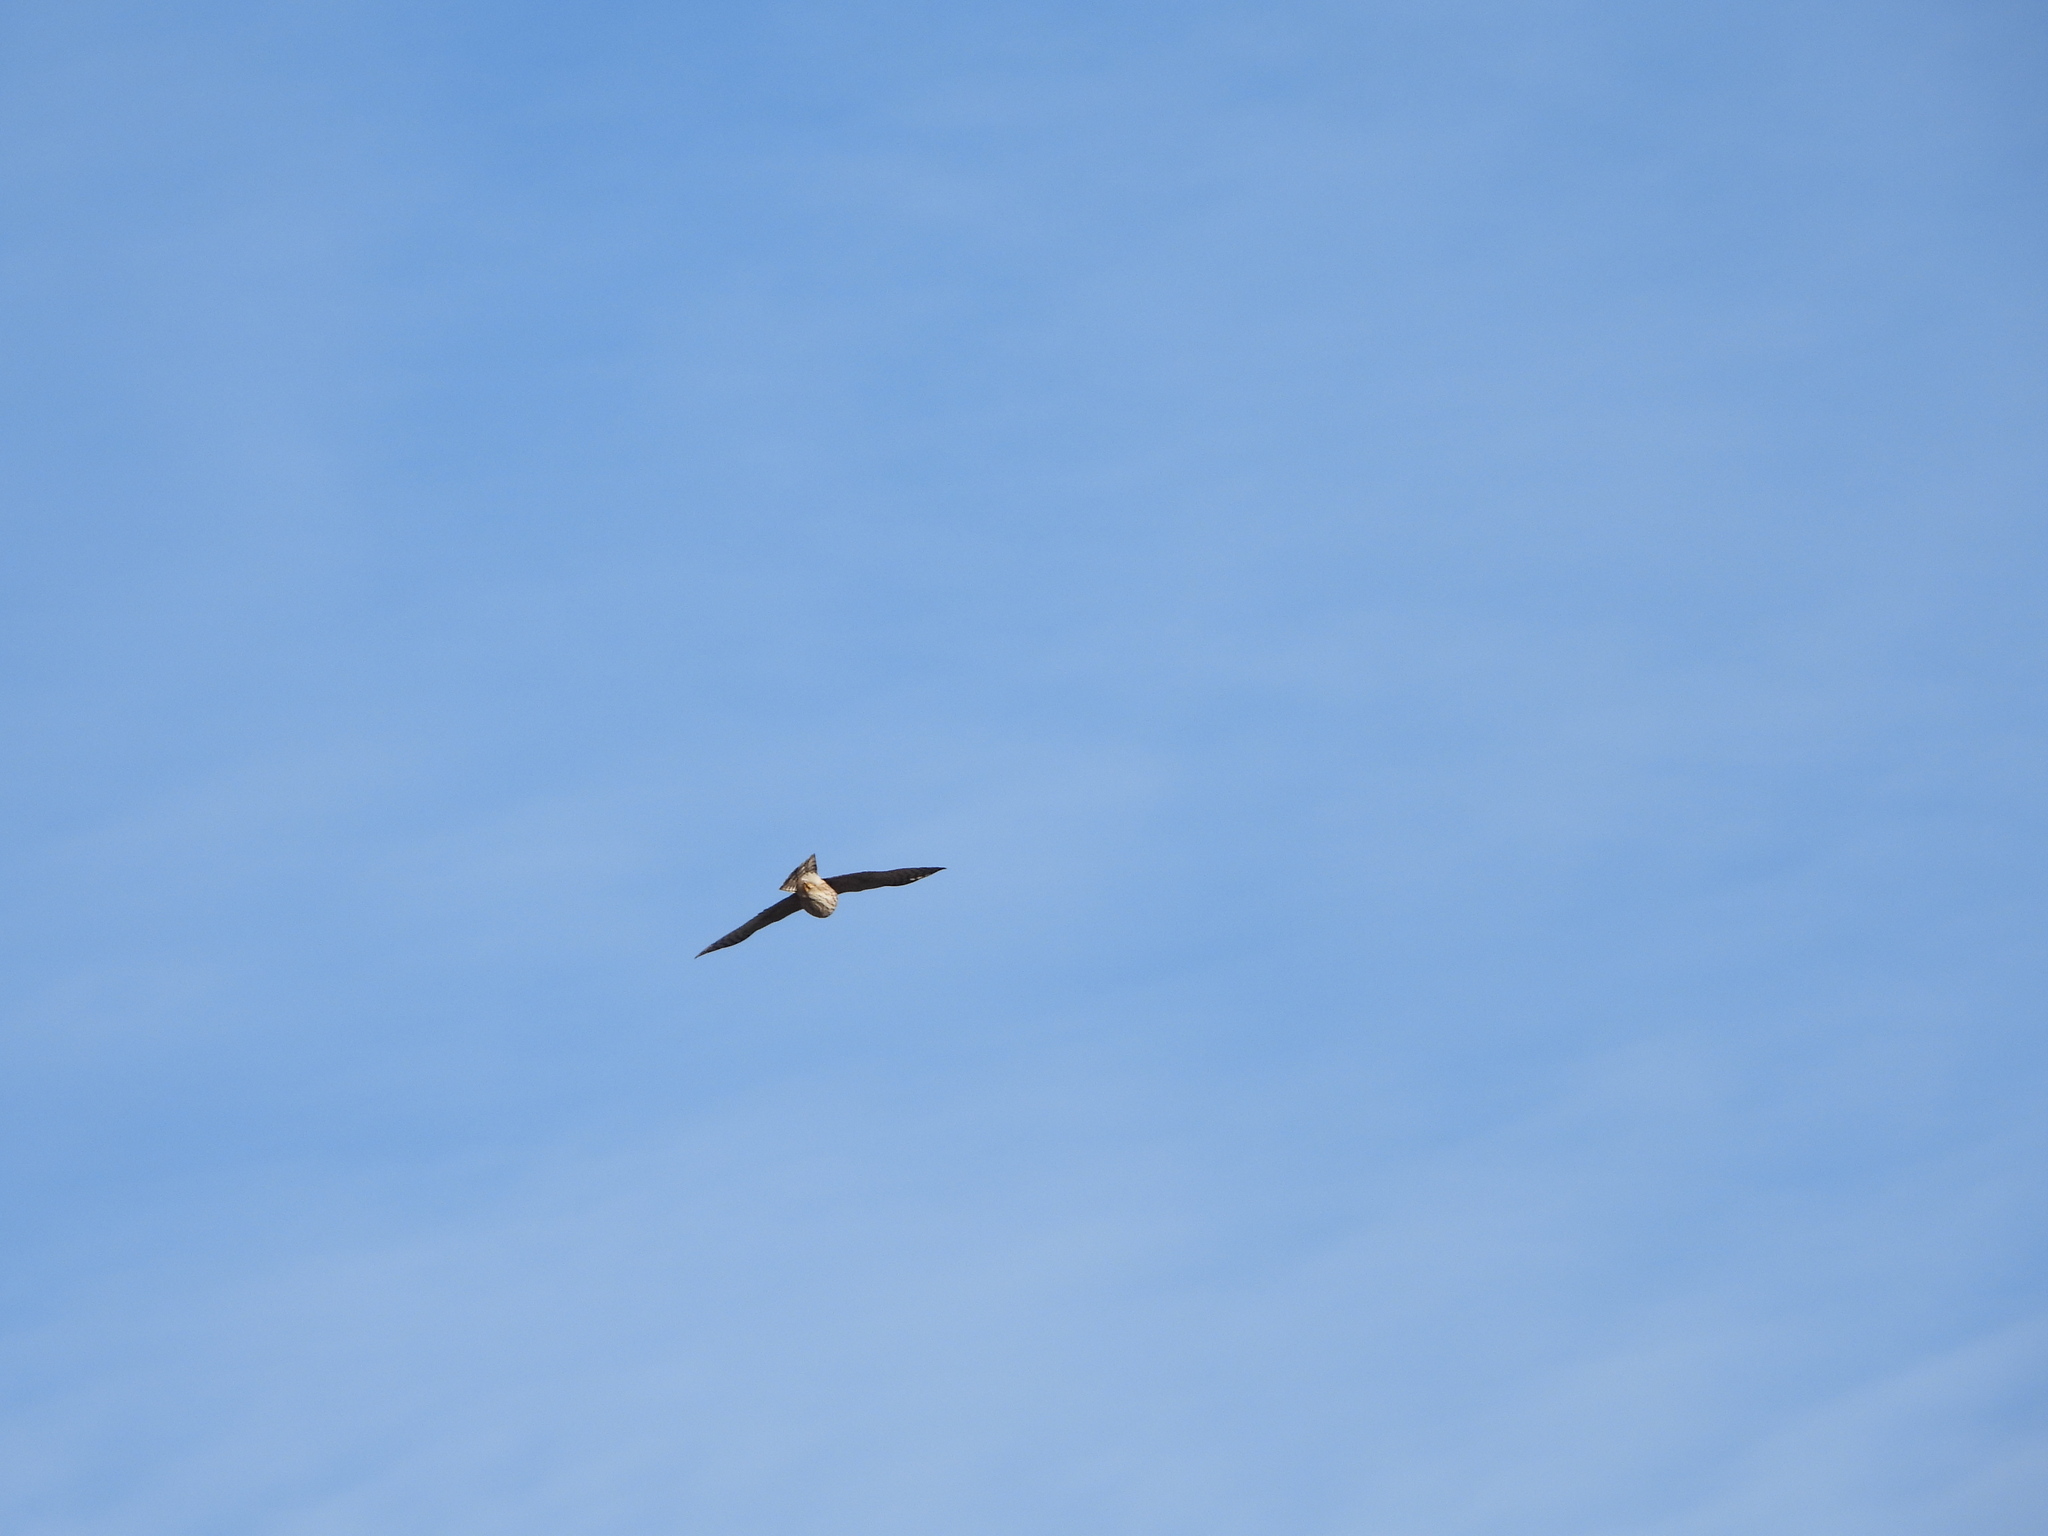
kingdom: Animalia
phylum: Chordata
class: Aves
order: Accipitriformes
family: Accipitridae
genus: Accipiter
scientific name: Accipiter striatus
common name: Sharp-shinned hawk
